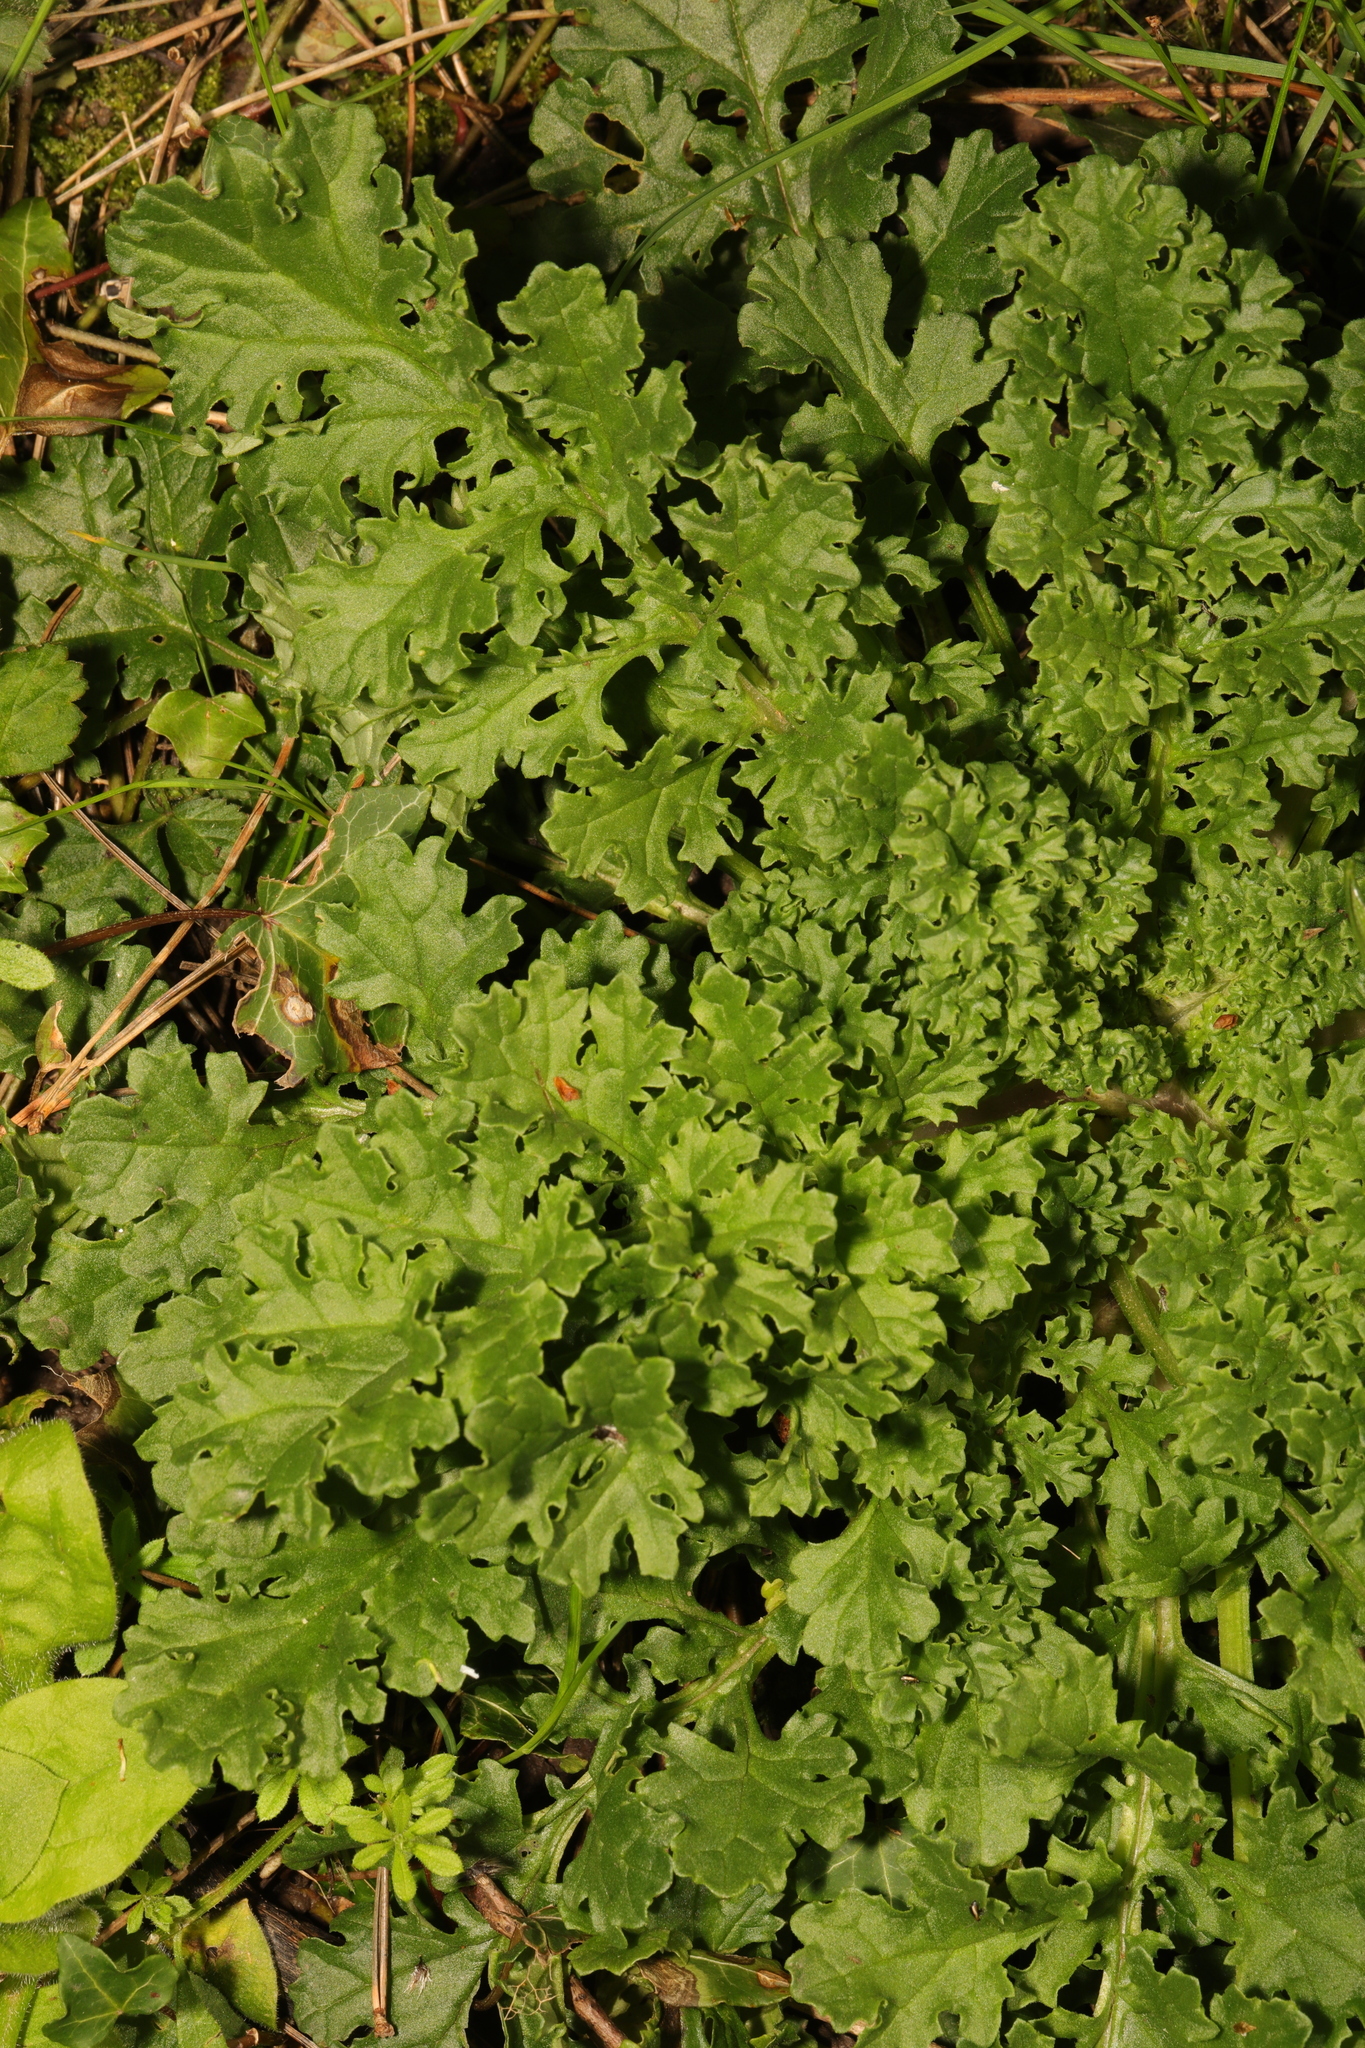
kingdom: Plantae
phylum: Tracheophyta
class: Magnoliopsida
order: Asterales
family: Asteraceae
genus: Jacobaea
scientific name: Jacobaea vulgaris
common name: Stinking willie
